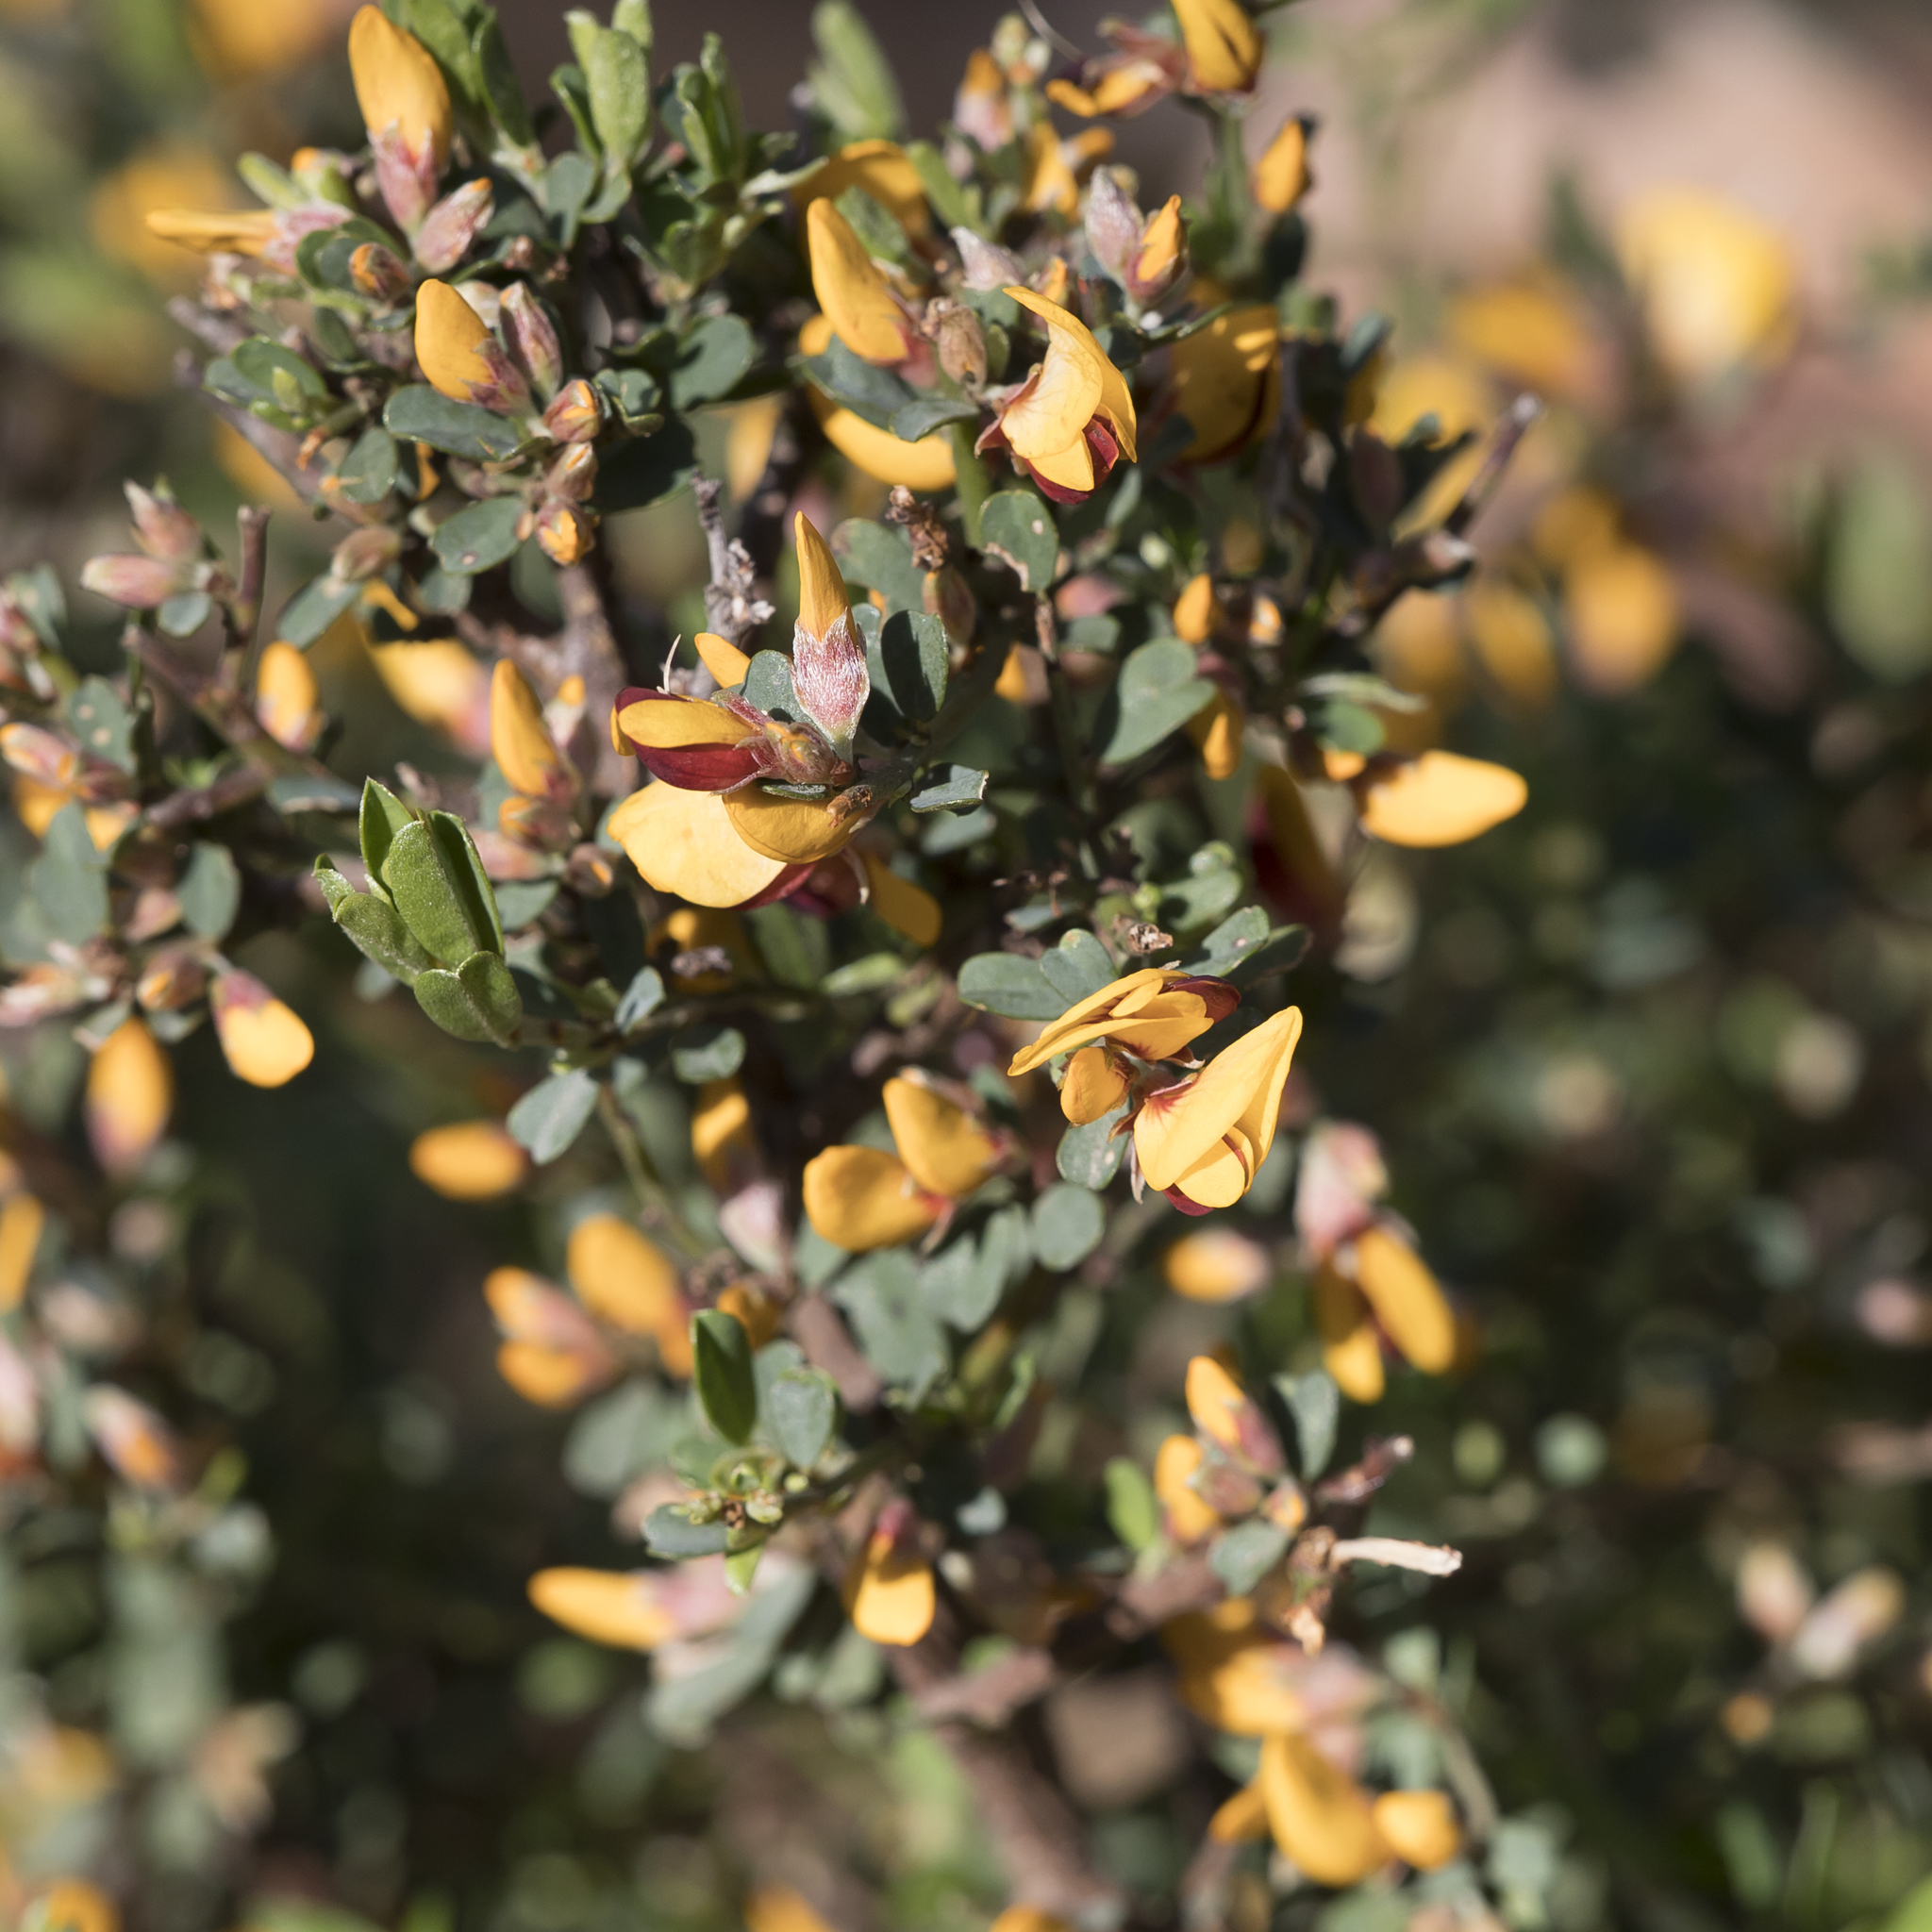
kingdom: Plantae
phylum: Tracheophyta
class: Magnoliopsida
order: Fabales
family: Fabaceae
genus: Pultenaea
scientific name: Pultenaea largiflorens
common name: Twiggy bush-pea
